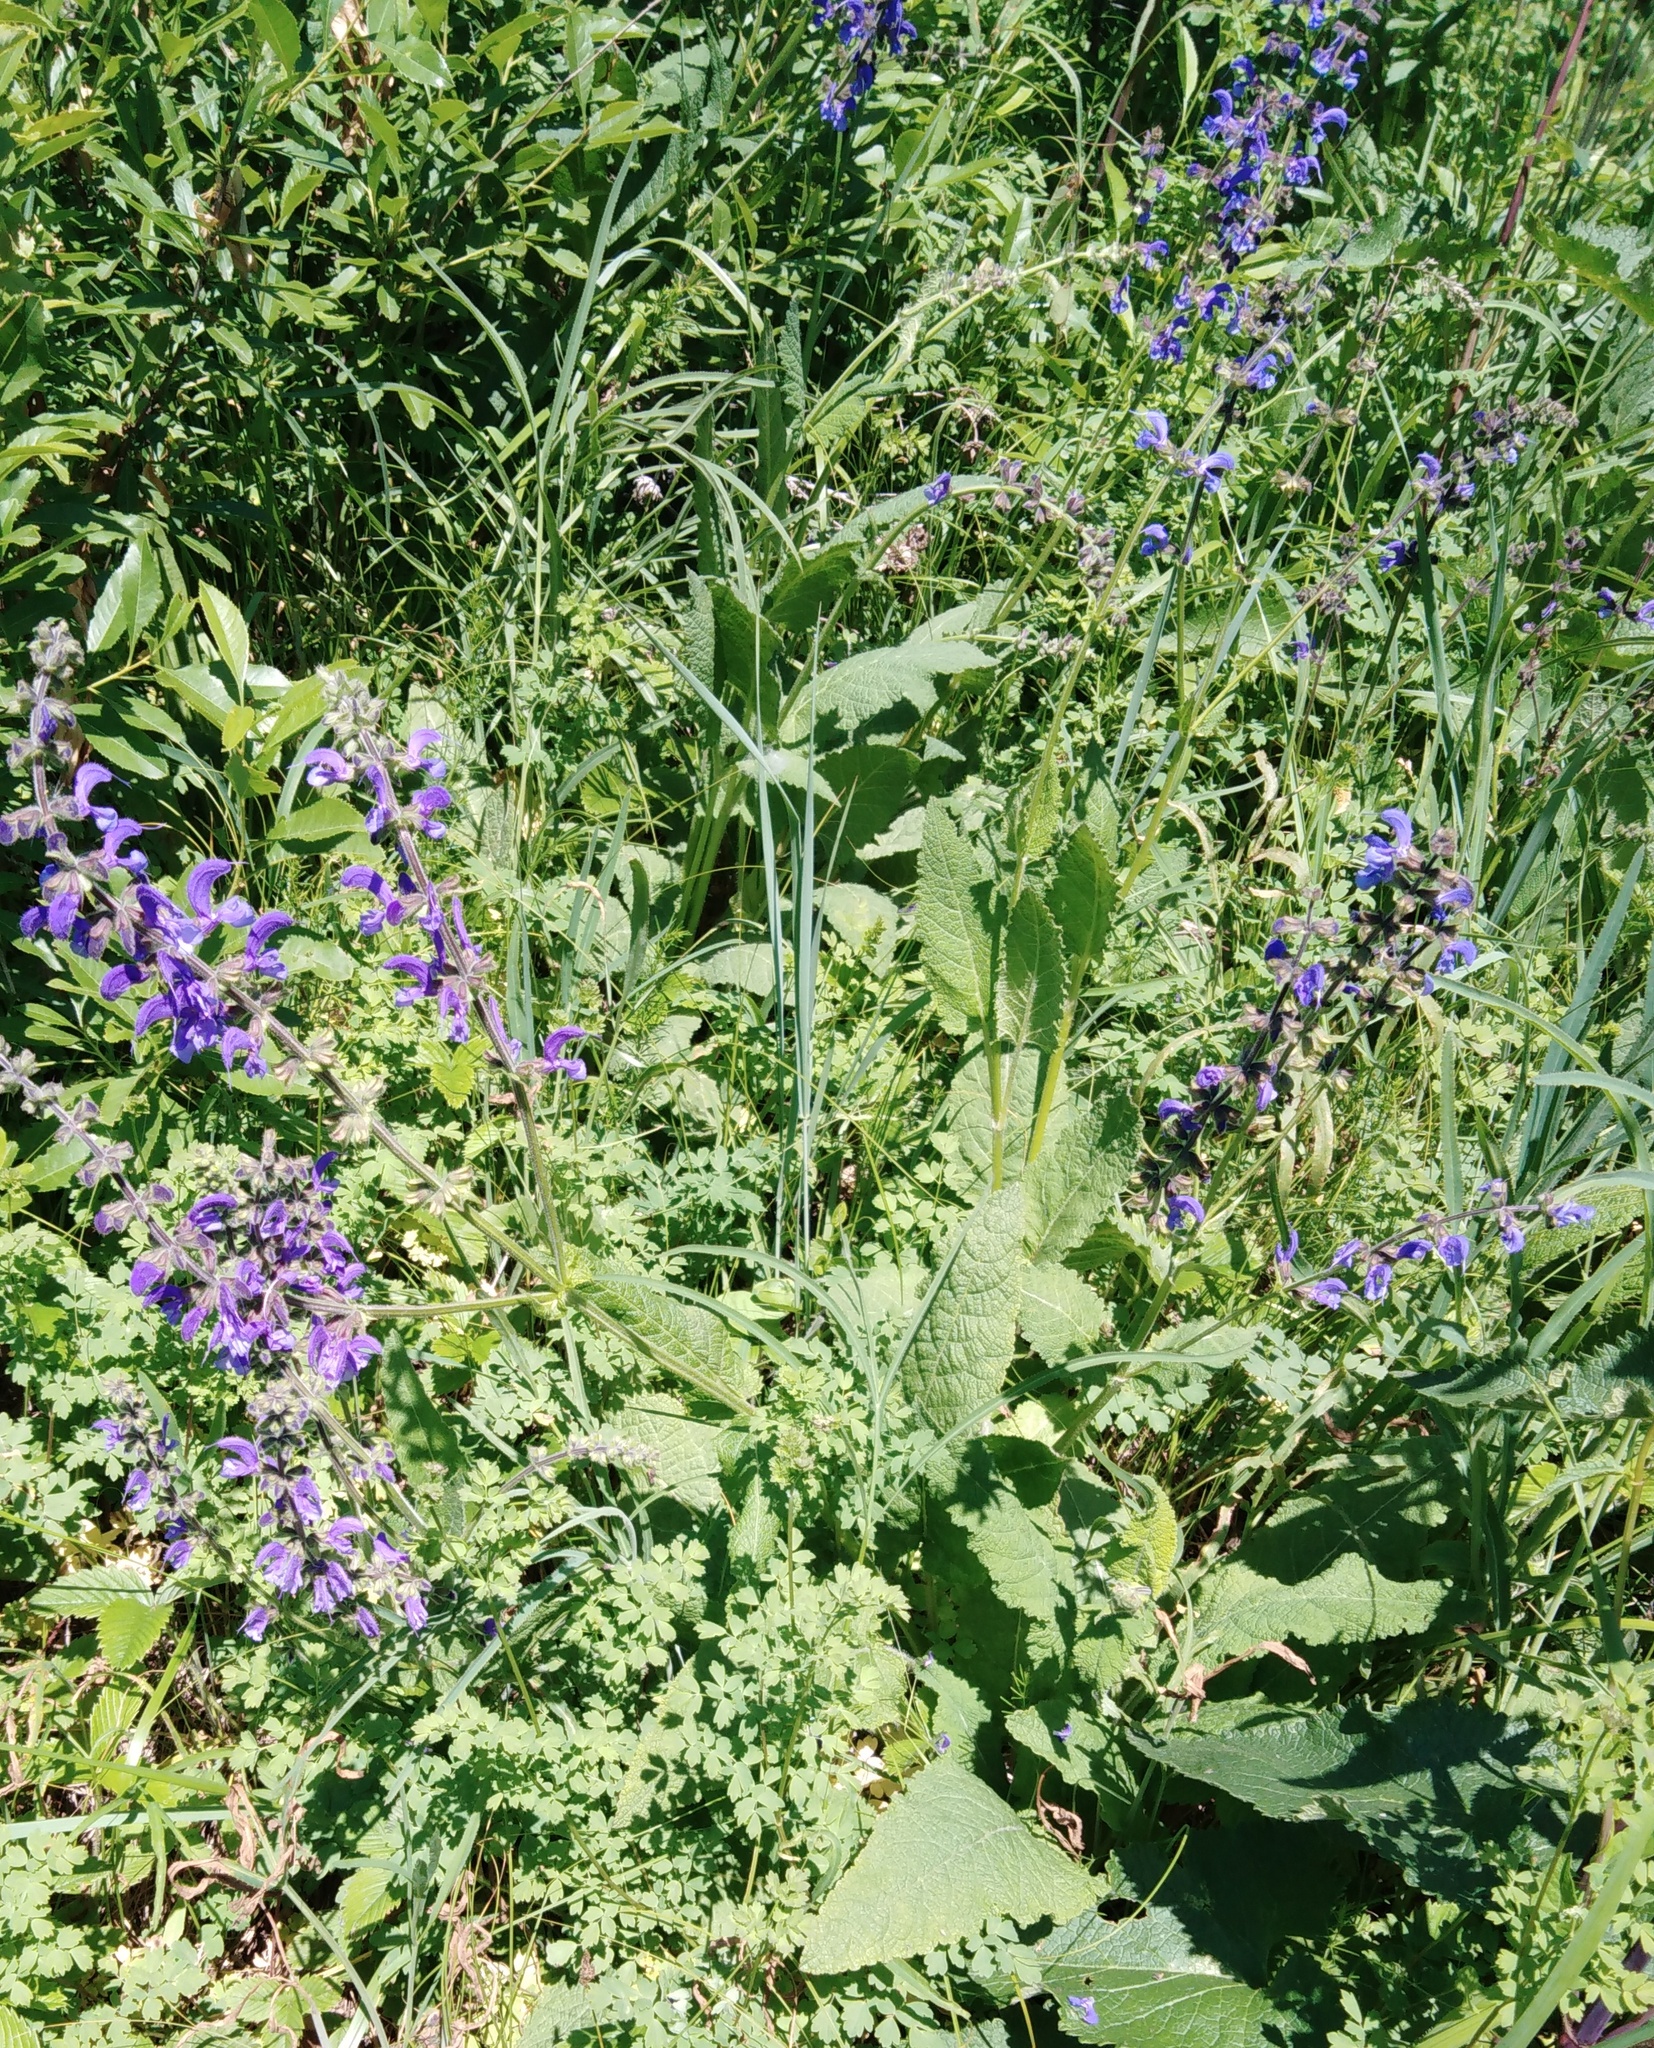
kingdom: Plantae
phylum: Tracheophyta
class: Magnoliopsida
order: Lamiales
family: Lamiaceae
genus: Salvia
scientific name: Salvia pratensis
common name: Meadow sage
